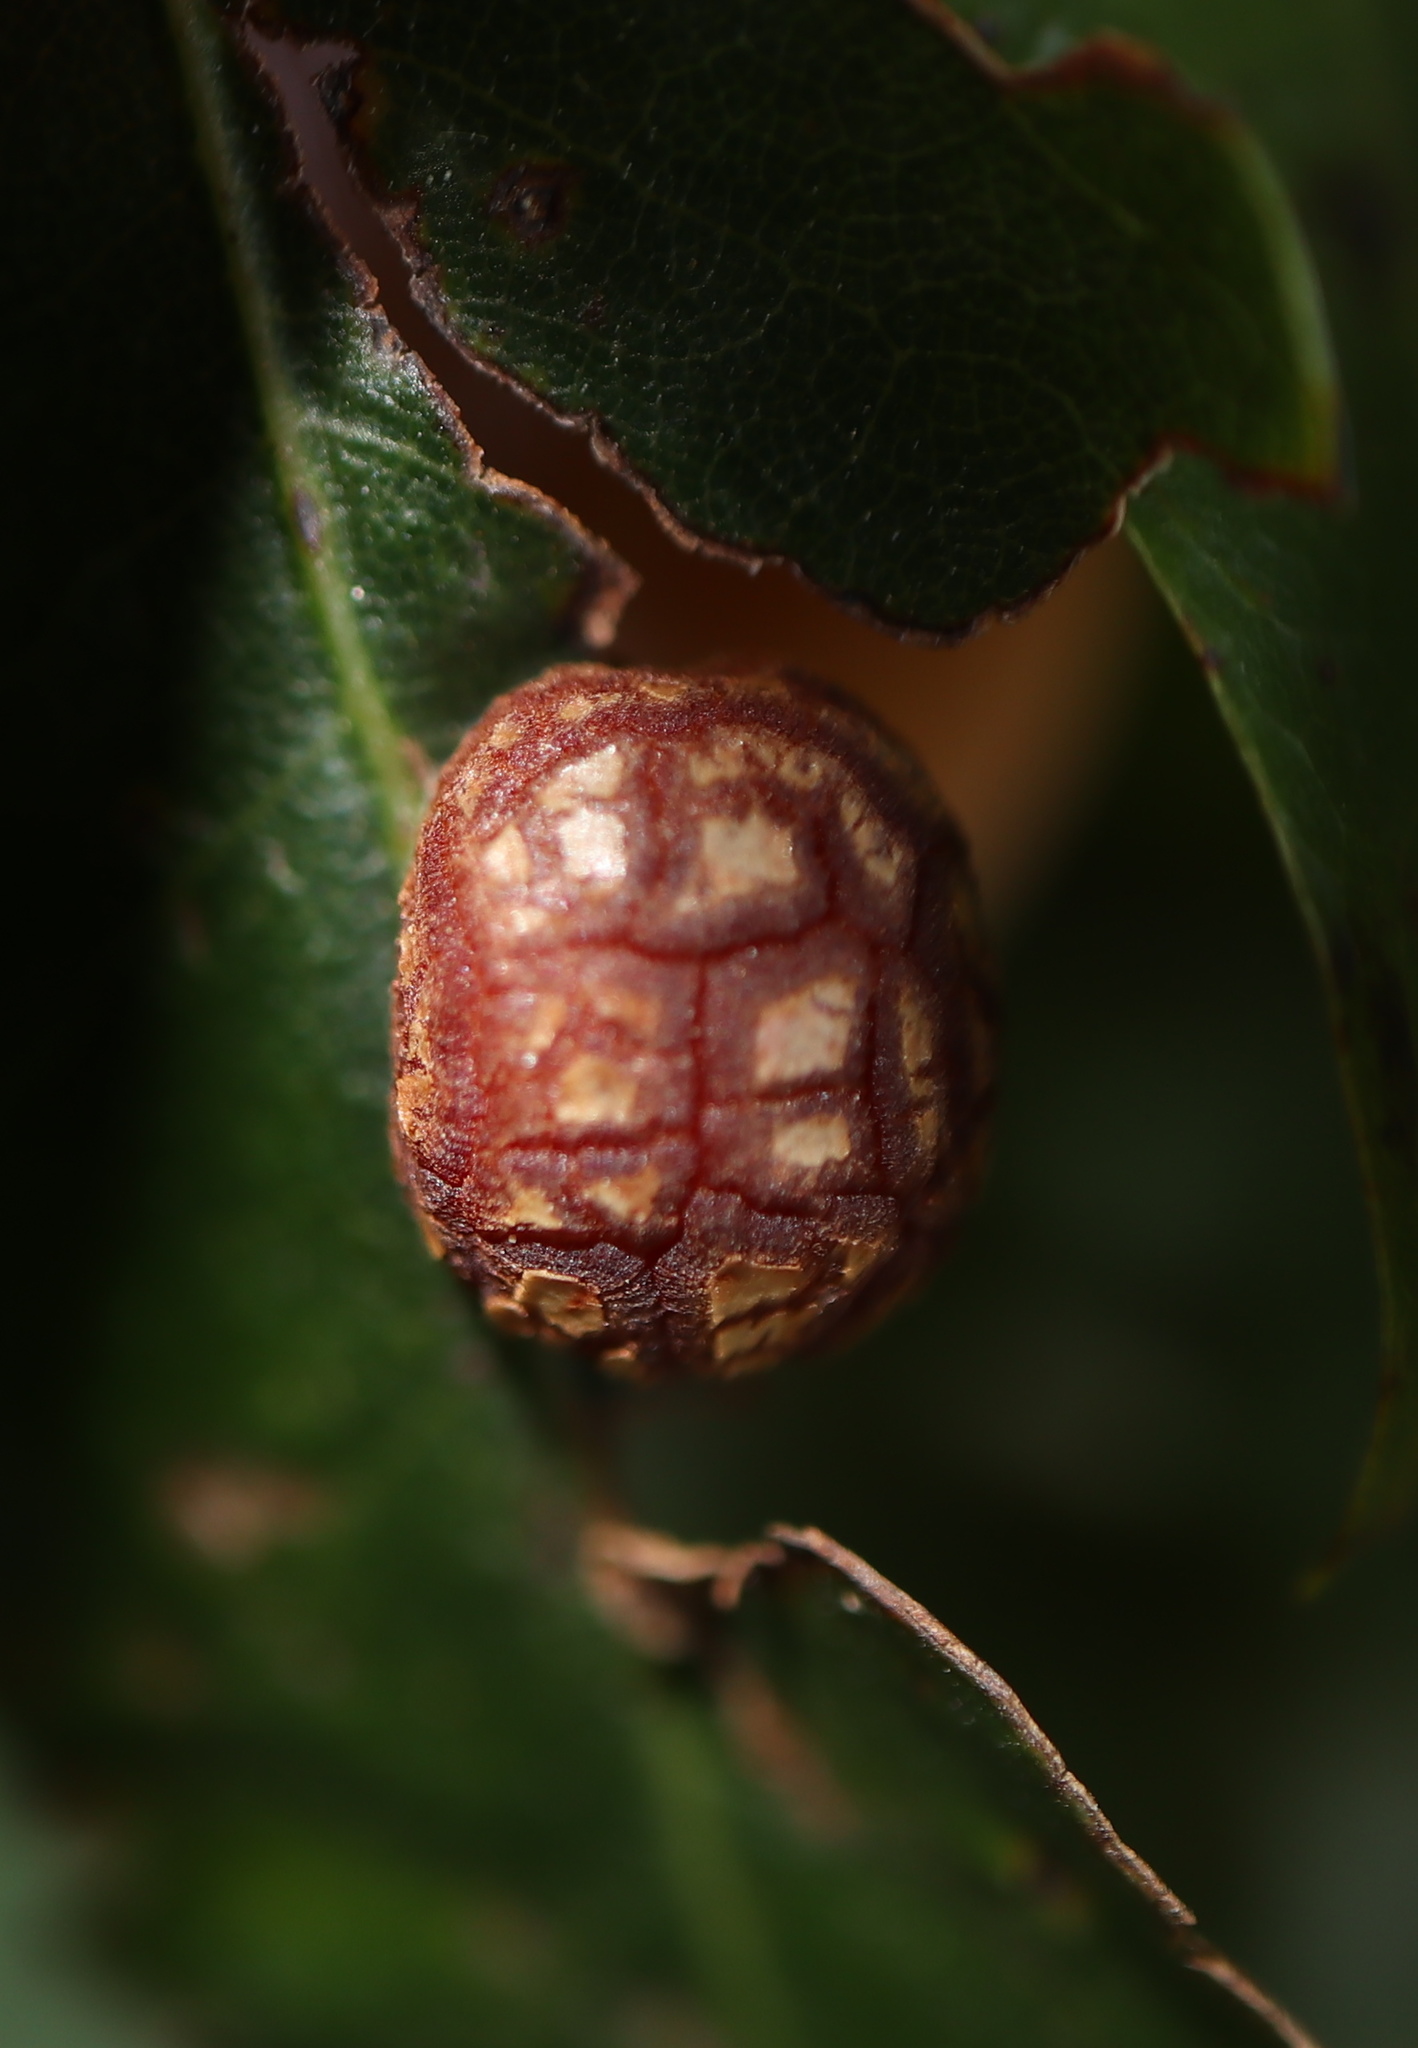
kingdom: Animalia
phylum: Arthropoda
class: Insecta
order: Diptera
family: Cecidomyiidae
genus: Polystepha
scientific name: Polystepha pilulae
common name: Oak leaf gall midge
